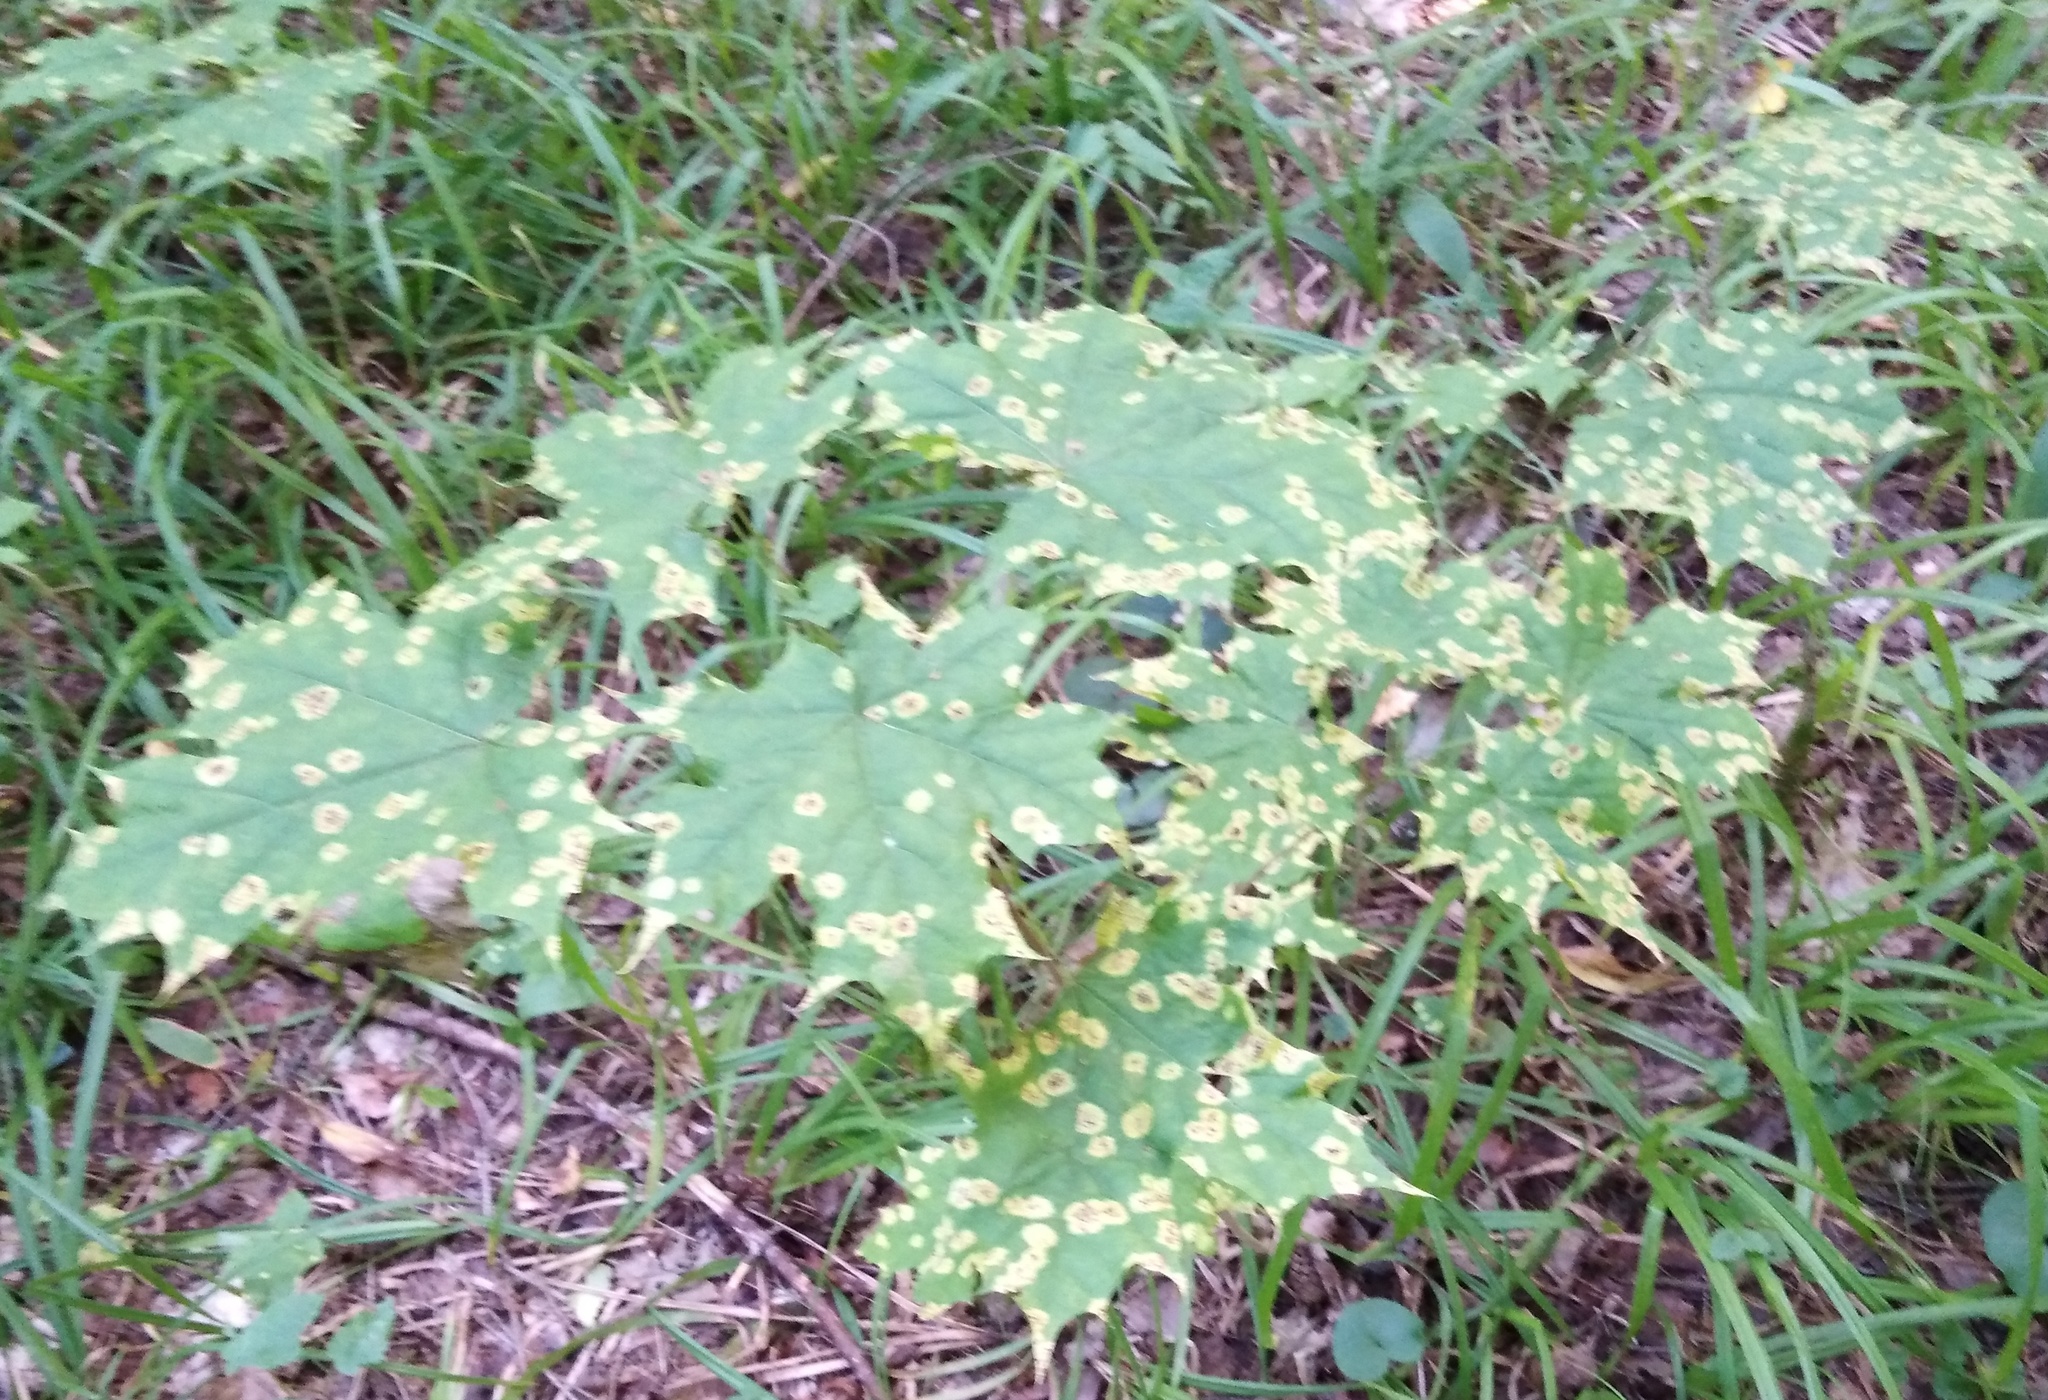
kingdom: Plantae
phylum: Tracheophyta
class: Magnoliopsida
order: Sapindales
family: Sapindaceae
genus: Acer
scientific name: Acer platanoides
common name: Norway maple
